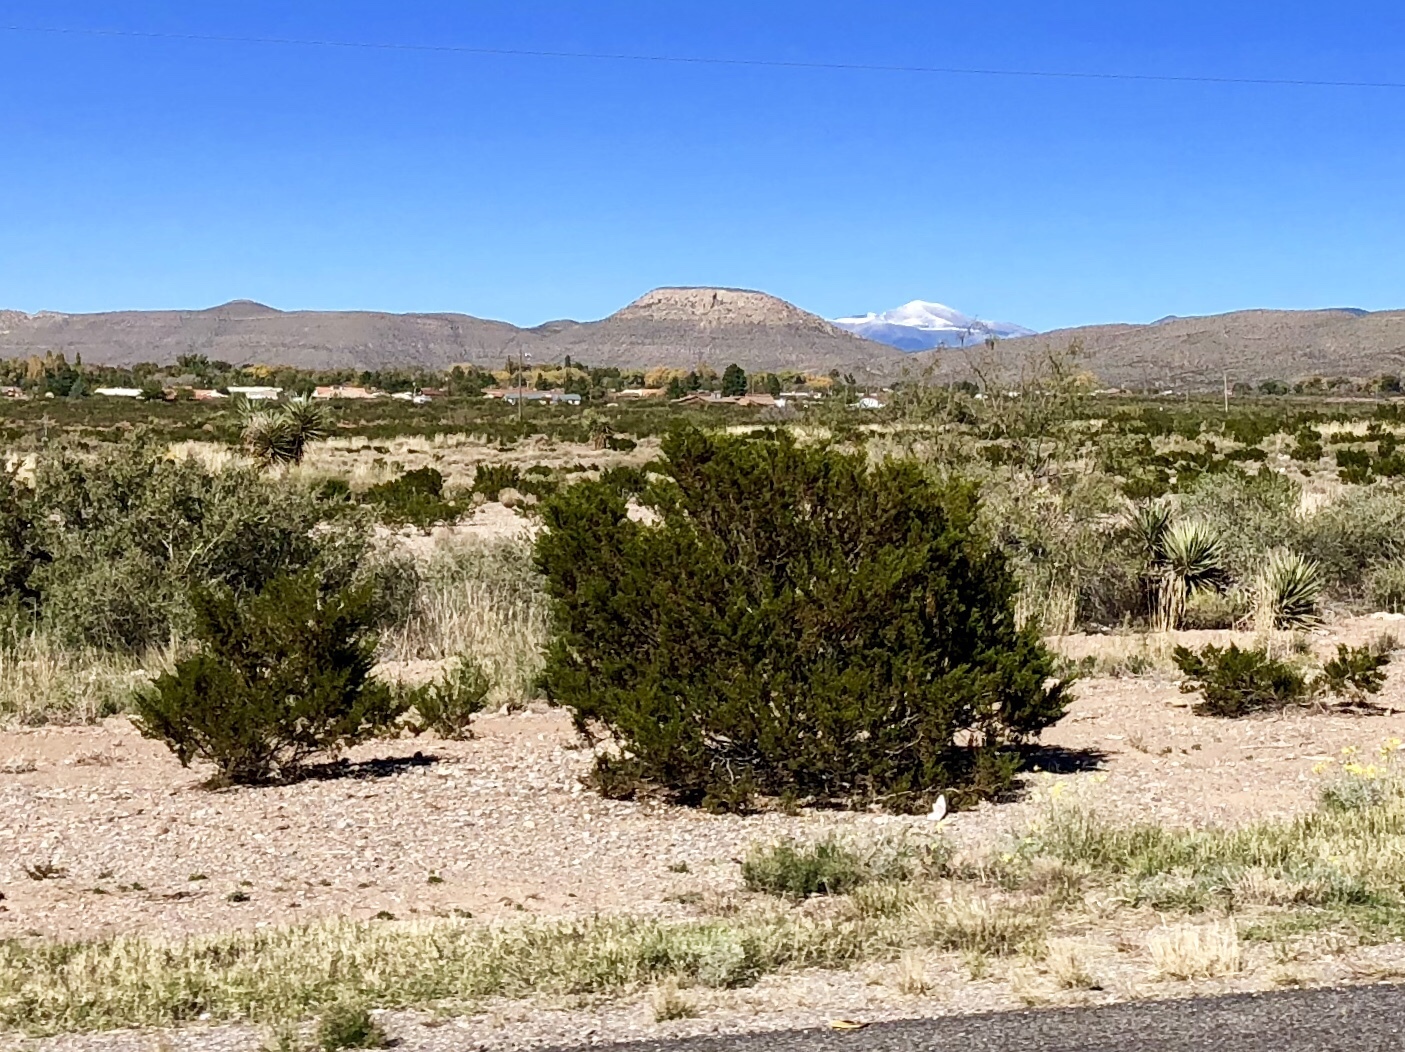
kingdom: Plantae
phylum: Tracheophyta
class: Magnoliopsida
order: Zygophyllales
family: Zygophyllaceae
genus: Larrea
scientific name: Larrea tridentata
